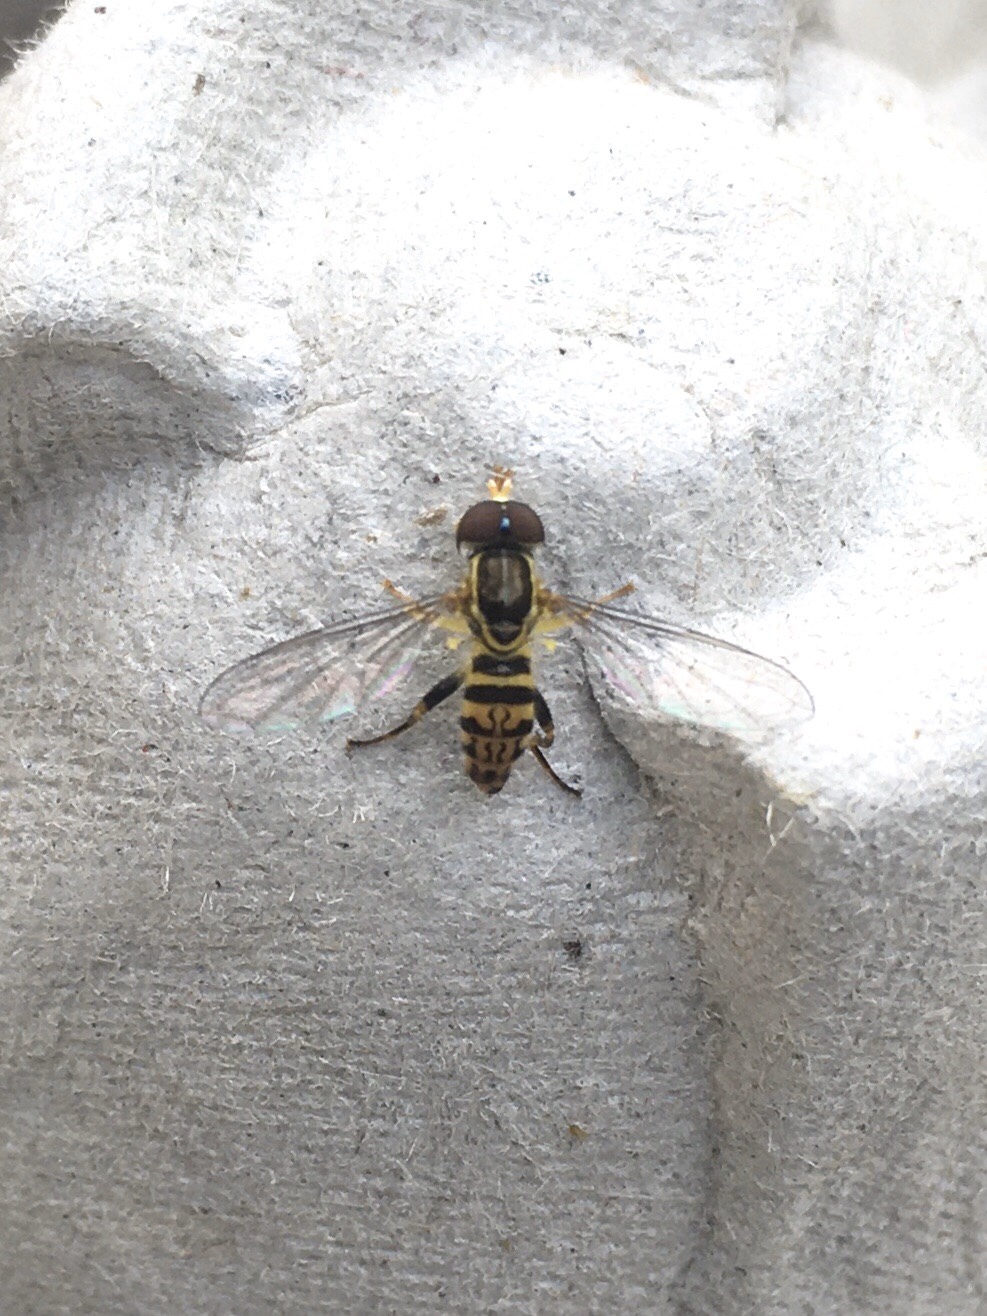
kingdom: Animalia
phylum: Arthropoda
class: Insecta
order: Diptera
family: Syrphidae
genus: Toxomerus
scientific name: Toxomerus geminatus
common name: Eastern calligrapher
